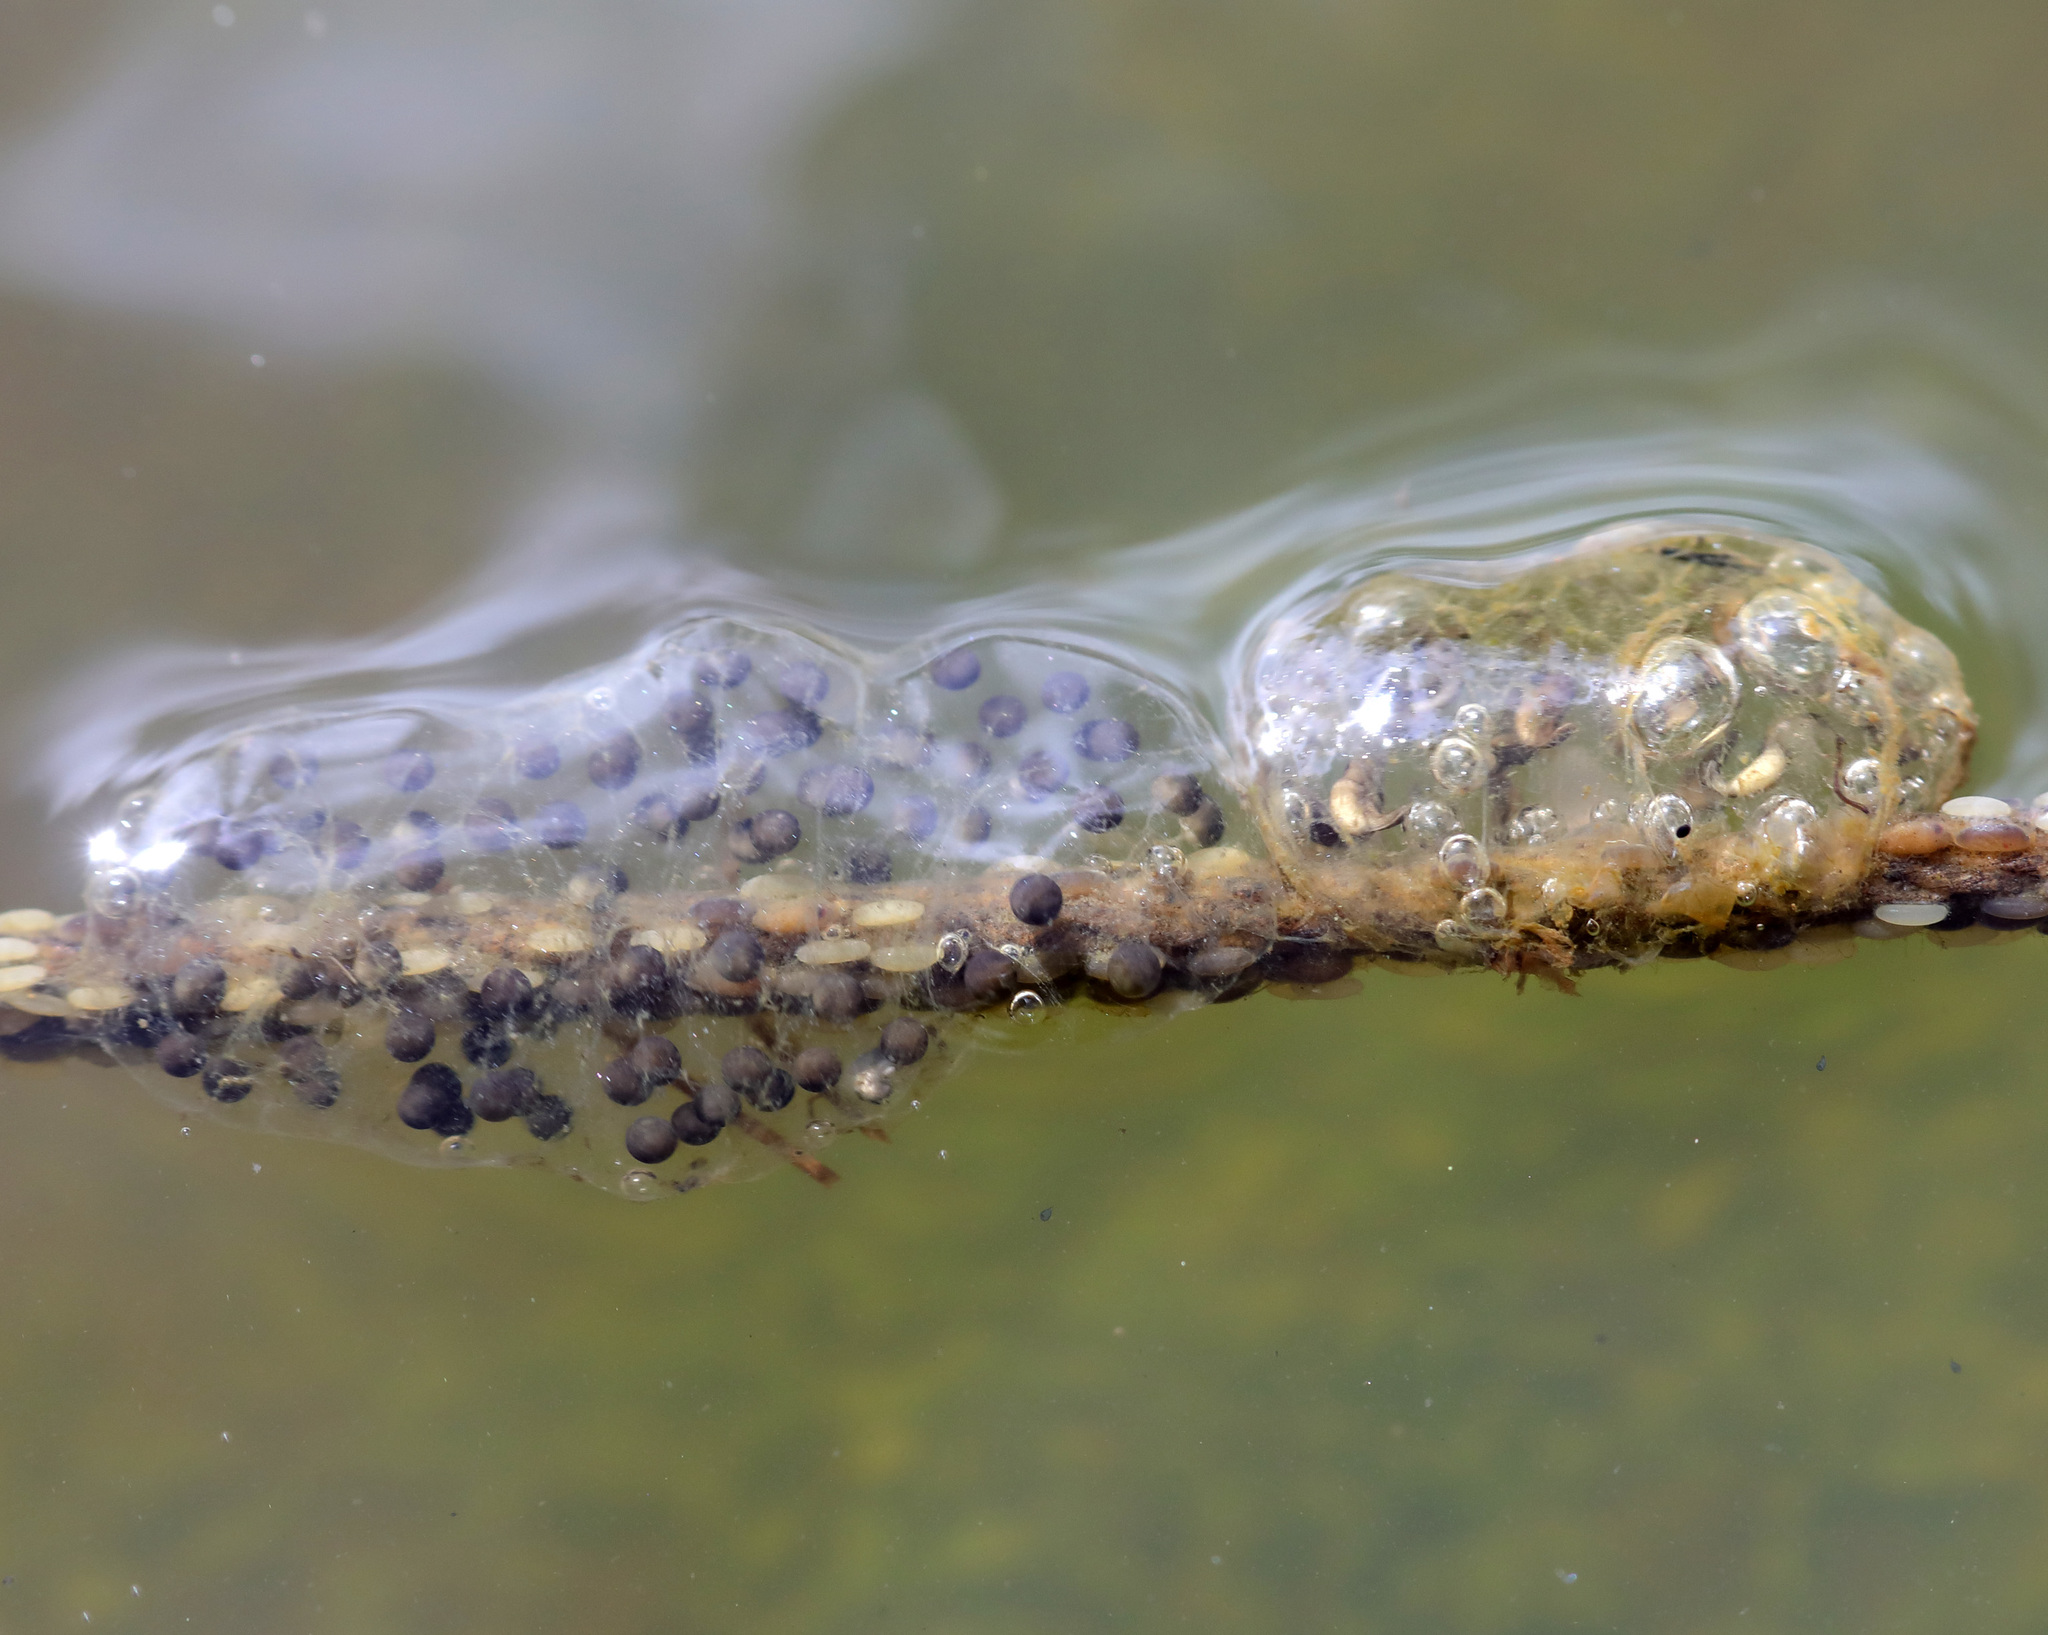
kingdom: Animalia
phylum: Chordata
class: Amphibia
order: Anura
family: Hylidae
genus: Pseudacris
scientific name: Pseudacris regilla
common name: Pacific chorus frog
